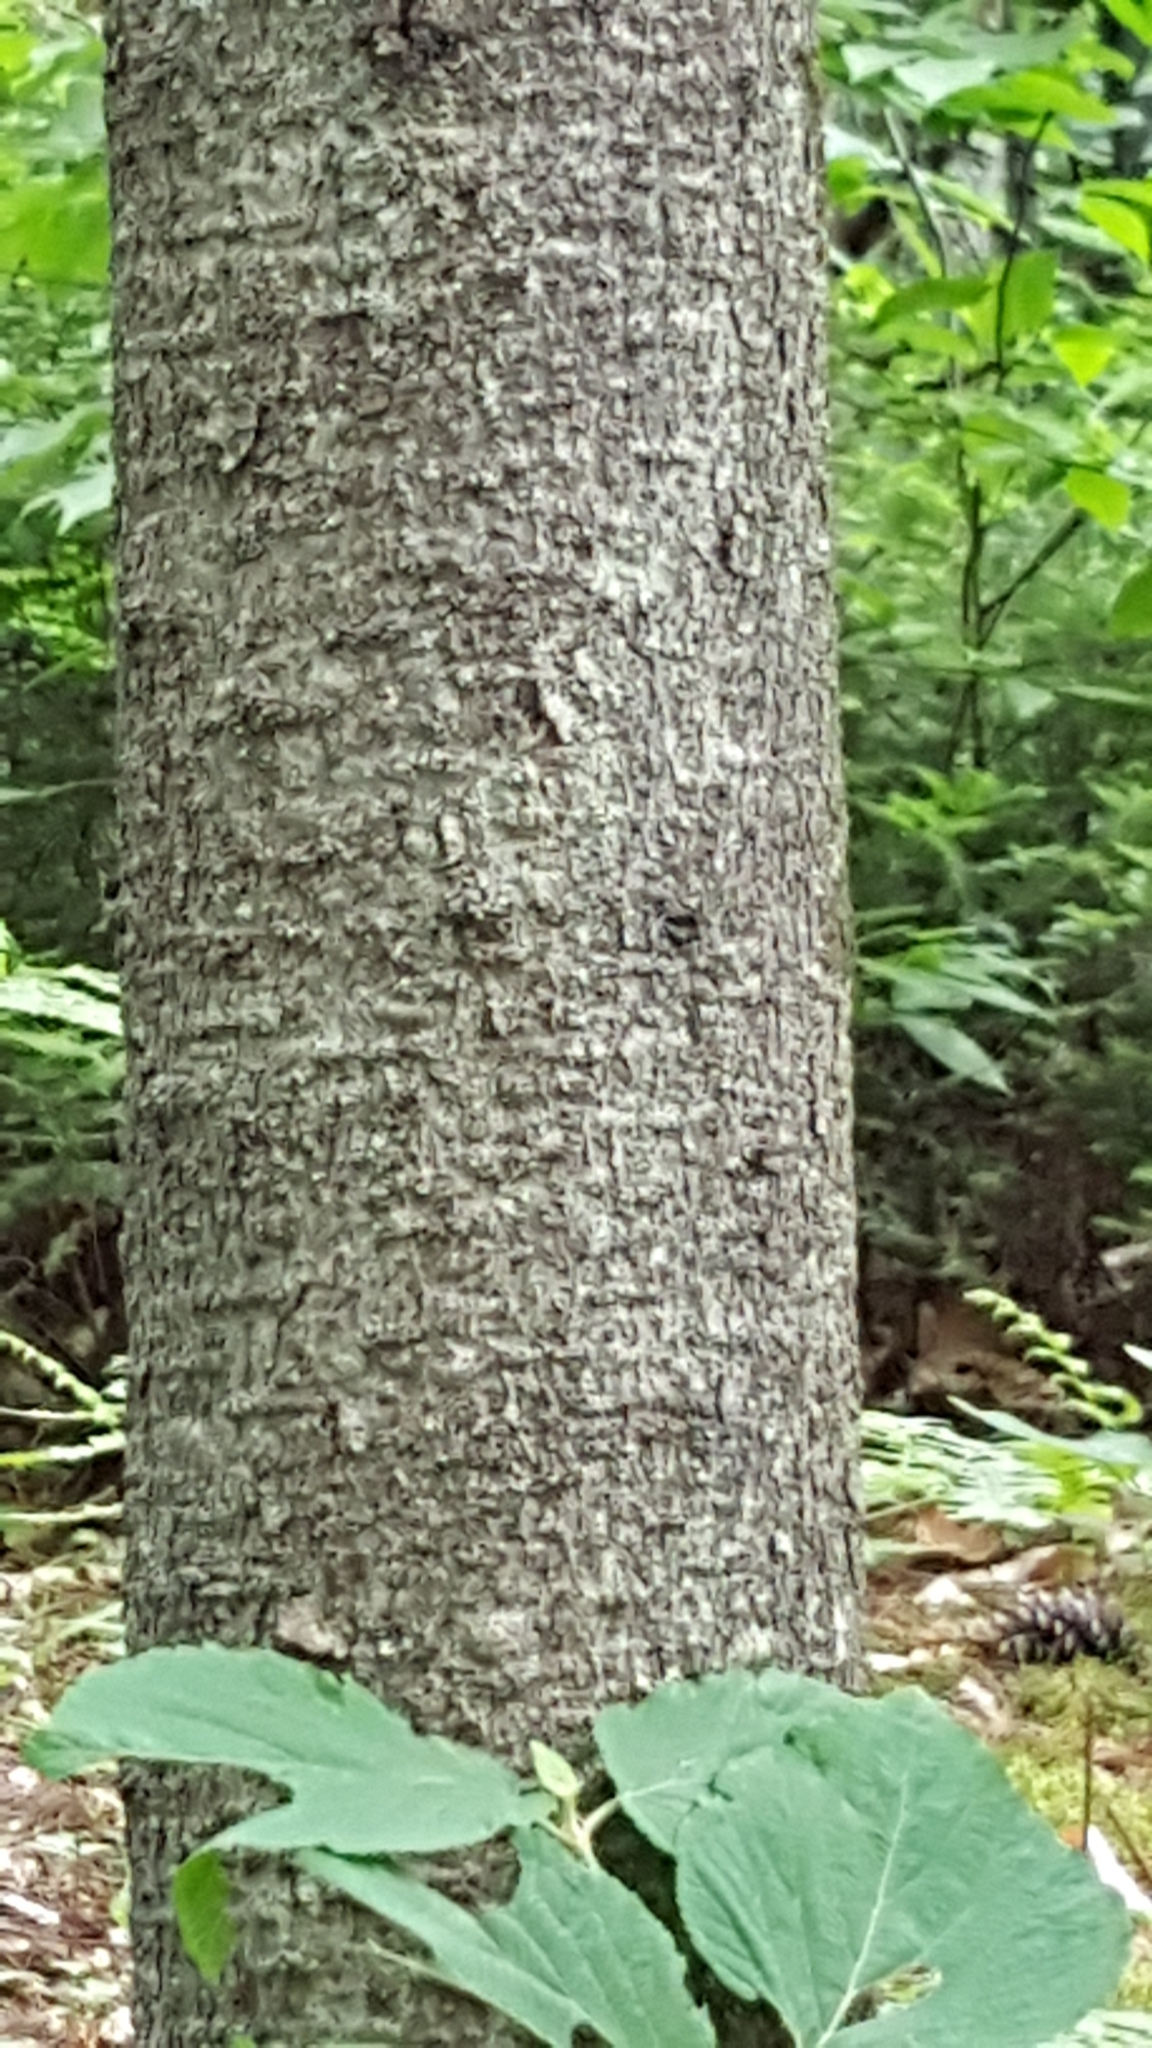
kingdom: Plantae
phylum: Tracheophyta
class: Pinopsida
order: Pinales
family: Pinaceae
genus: Abies
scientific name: Abies balsamea
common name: Balsam fir
